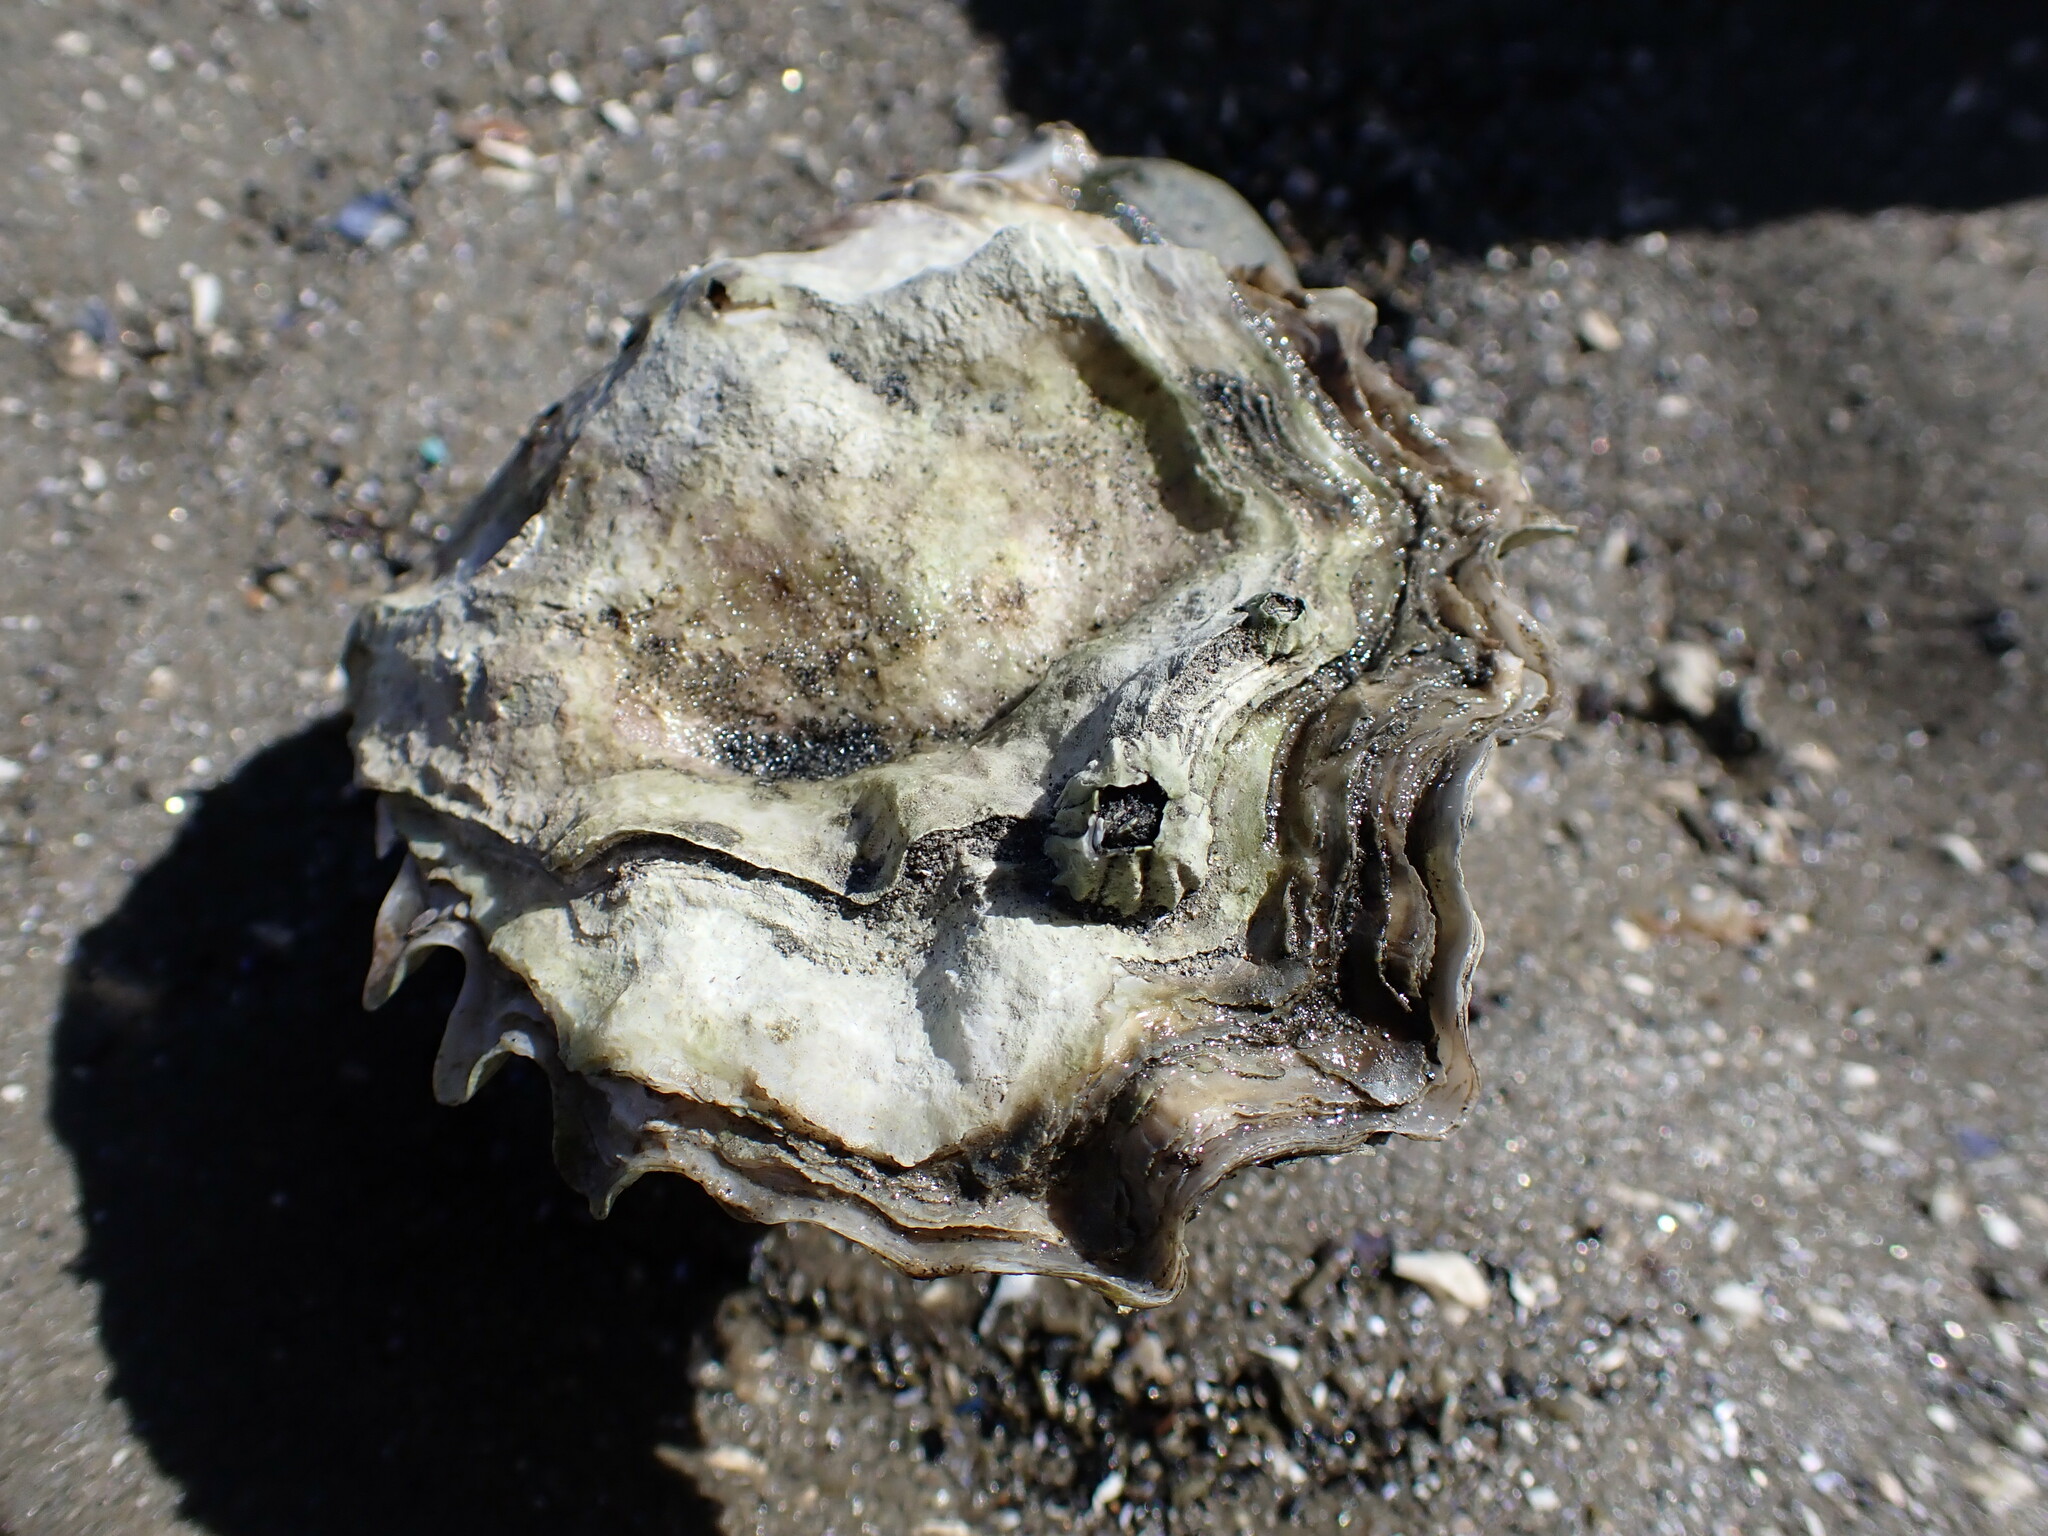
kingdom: Animalia
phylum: Mollusca
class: Bivalvia
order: Ostreida
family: Ostreidae
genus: Magallana
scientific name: Magallana gigas
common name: Pacific oyster
